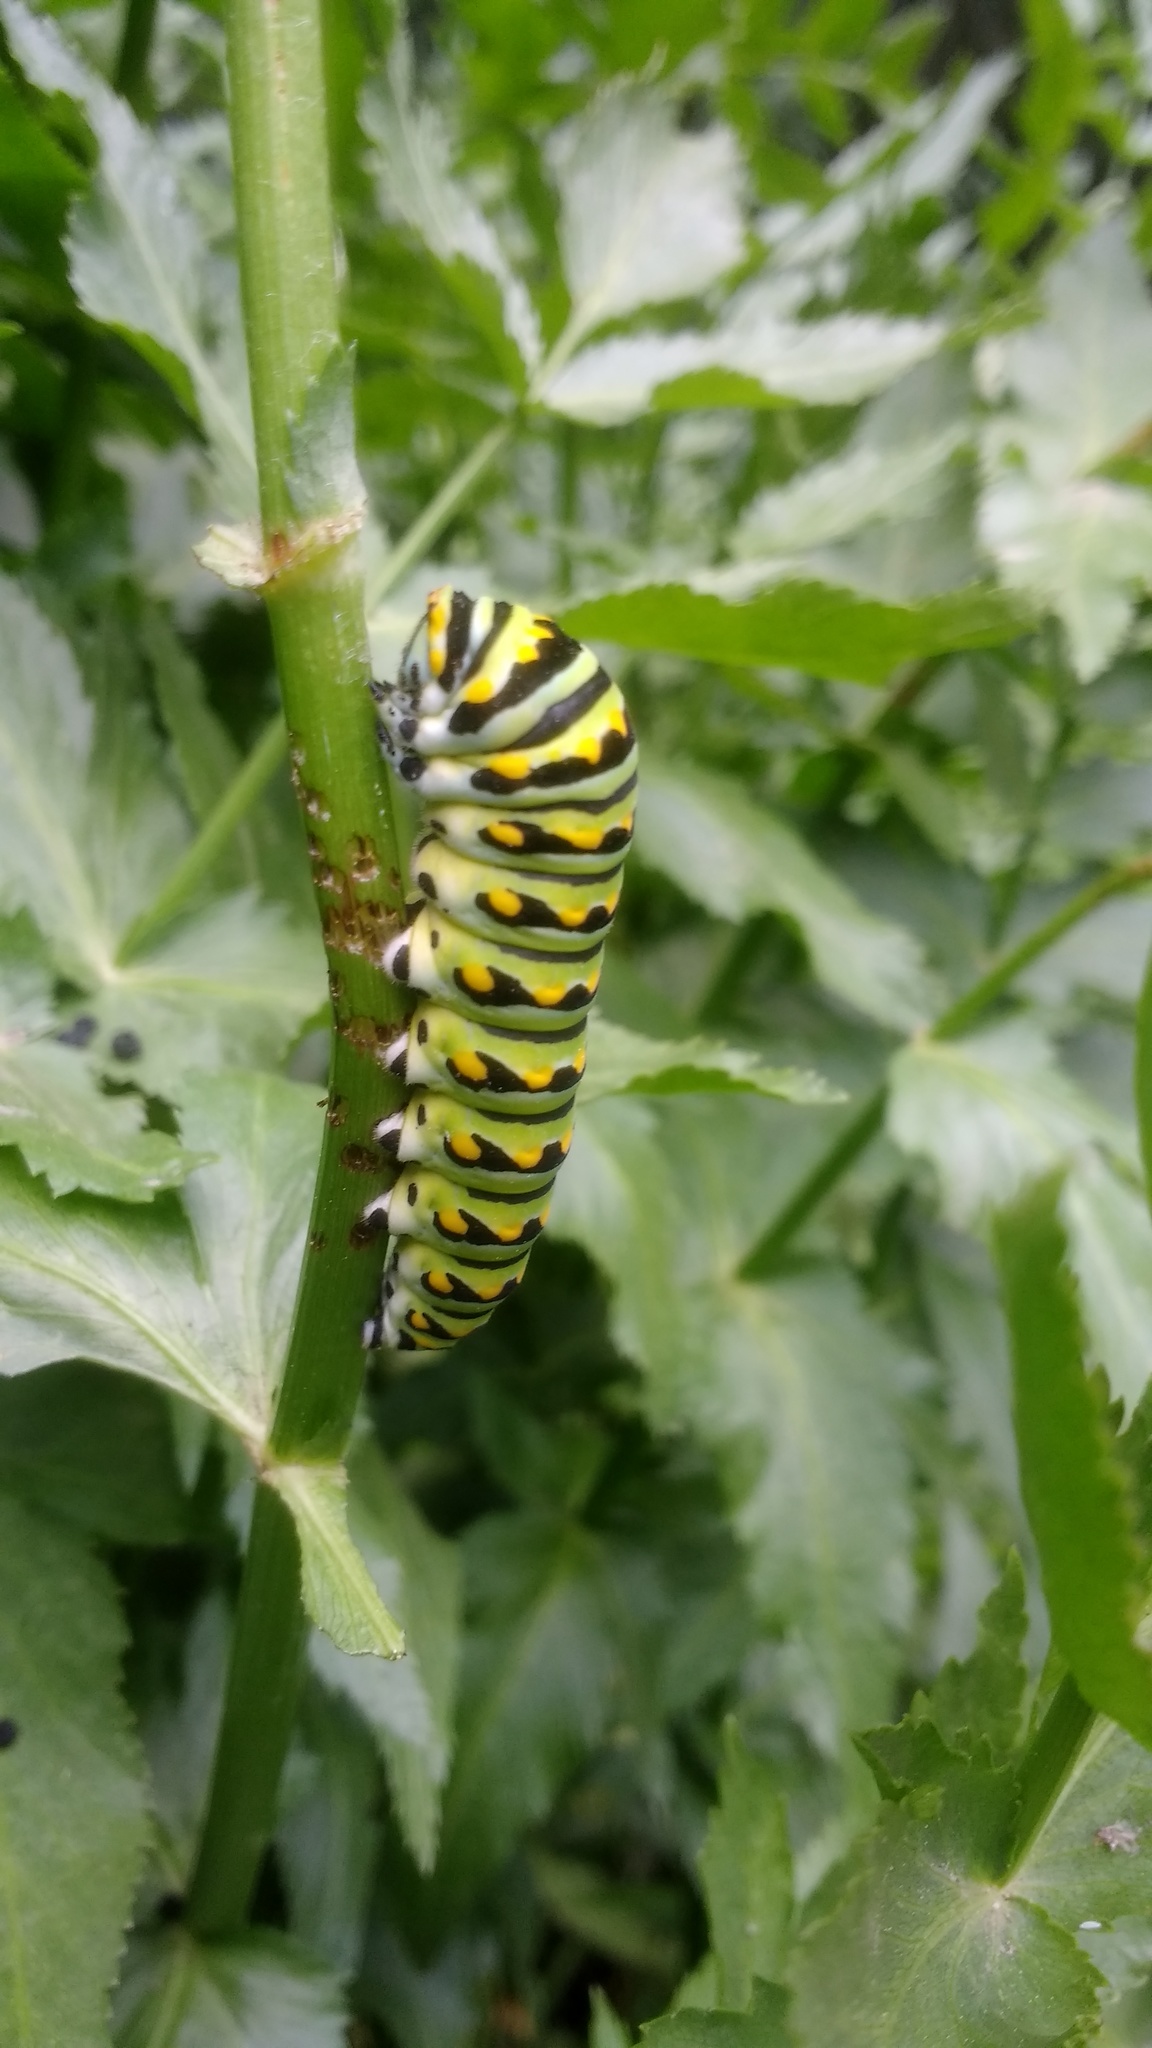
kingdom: Animalia
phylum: Arthropoda
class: Insecta
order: Lepidoptera
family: Papilionidae
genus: Papilio
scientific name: Papilio polyxenes
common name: Black swallowtail
